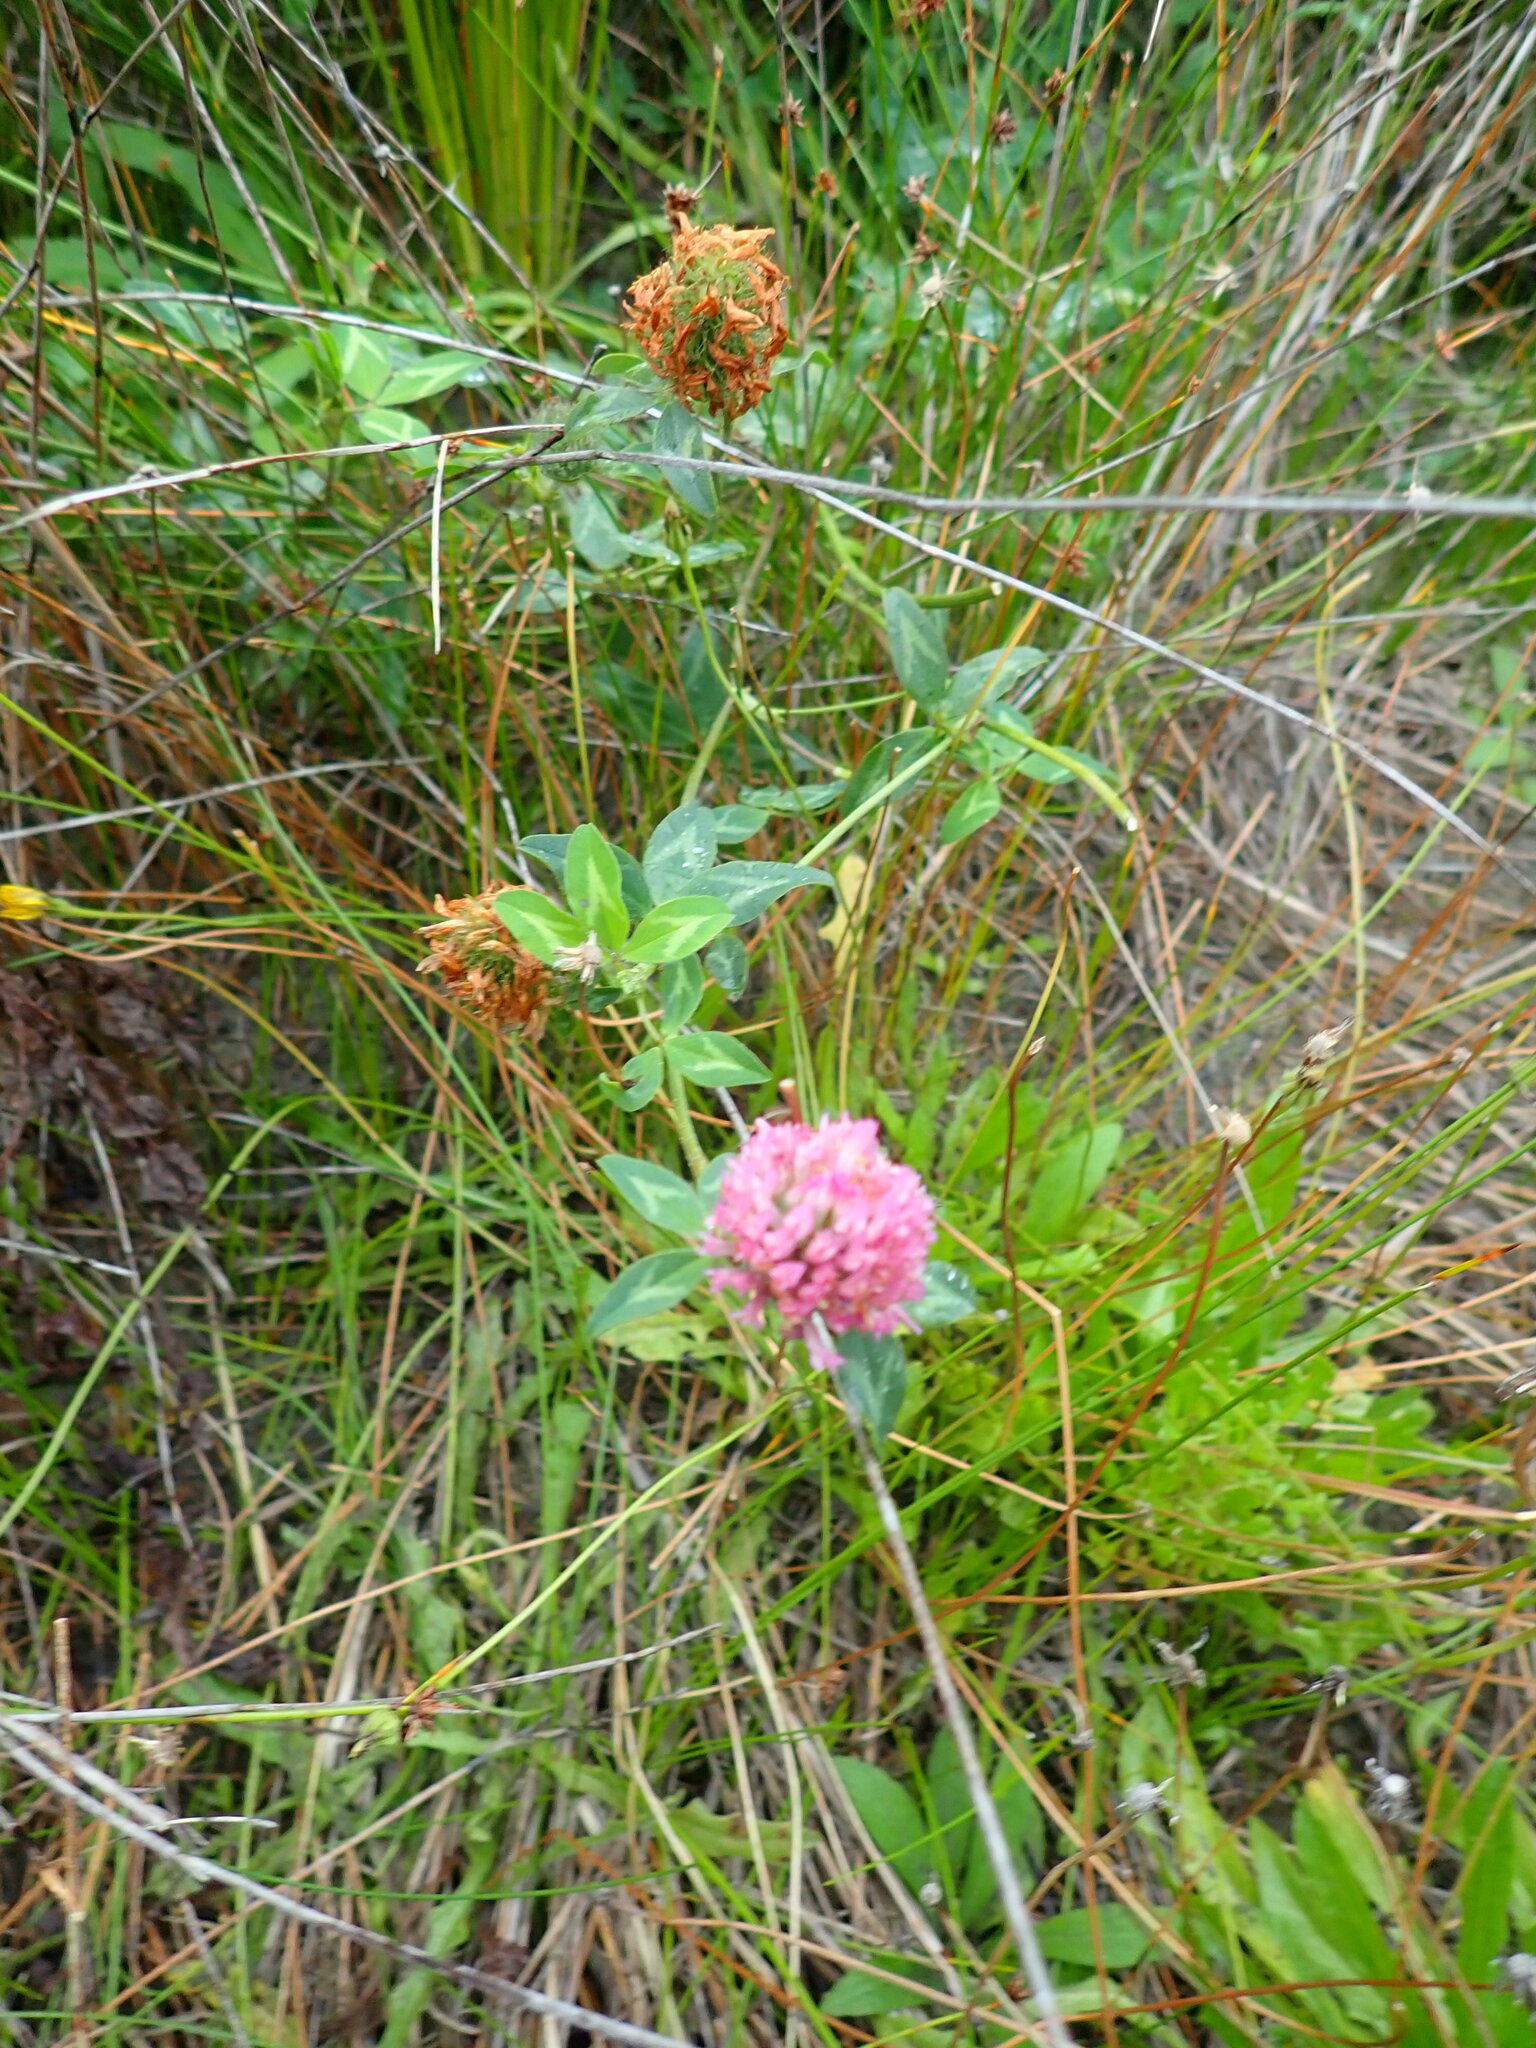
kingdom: Plantae
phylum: Tracheophyta
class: Magnoliopsida
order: Fabales
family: Fabaceae
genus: Trifolium
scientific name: Trifolium pratense
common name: Red clover
